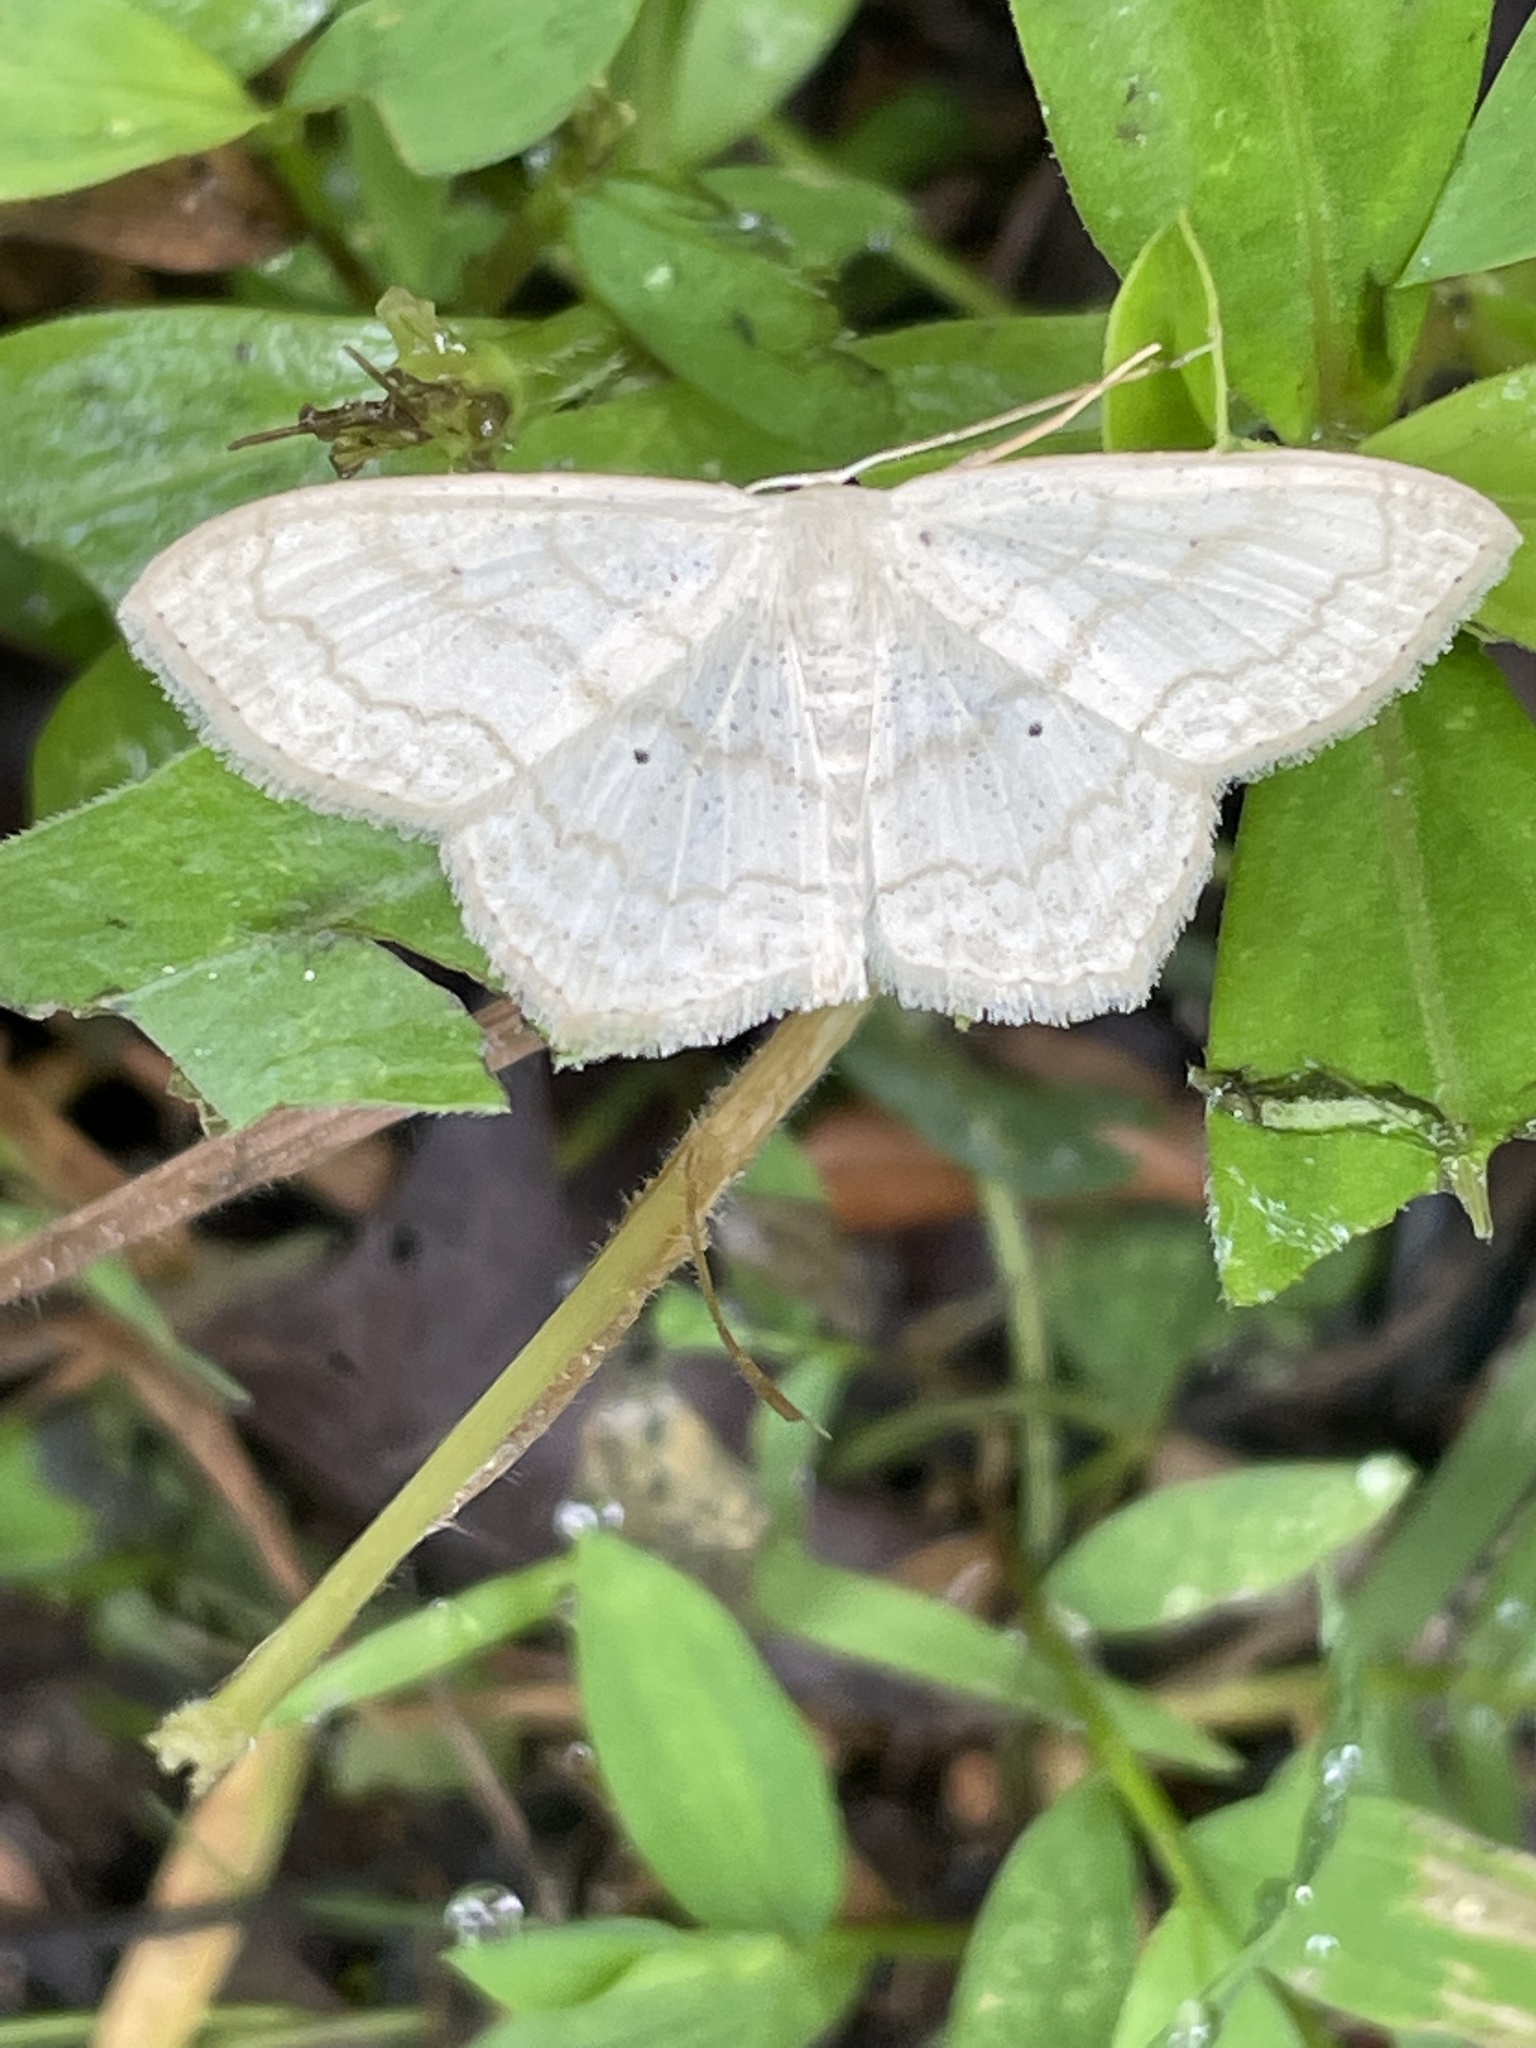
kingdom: Animalia
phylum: Arthropoda
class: Insecta
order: Lepidoptera
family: Geometridae
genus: Scopula
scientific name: Scopula limboundata
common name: Large lace border
